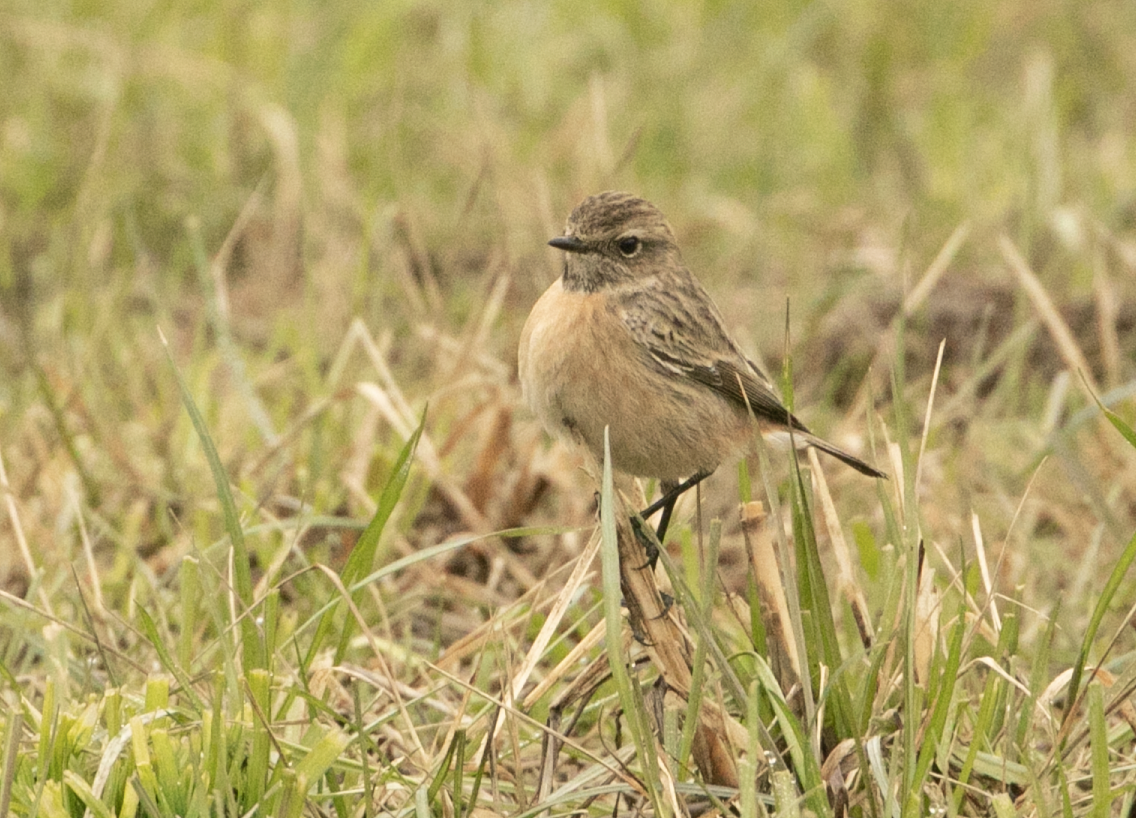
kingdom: Animalia
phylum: Chordata
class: Aves
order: Passeriformes
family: Muscicapidae
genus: Saxicola
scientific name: Saxicola rubicola
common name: European stonechat
